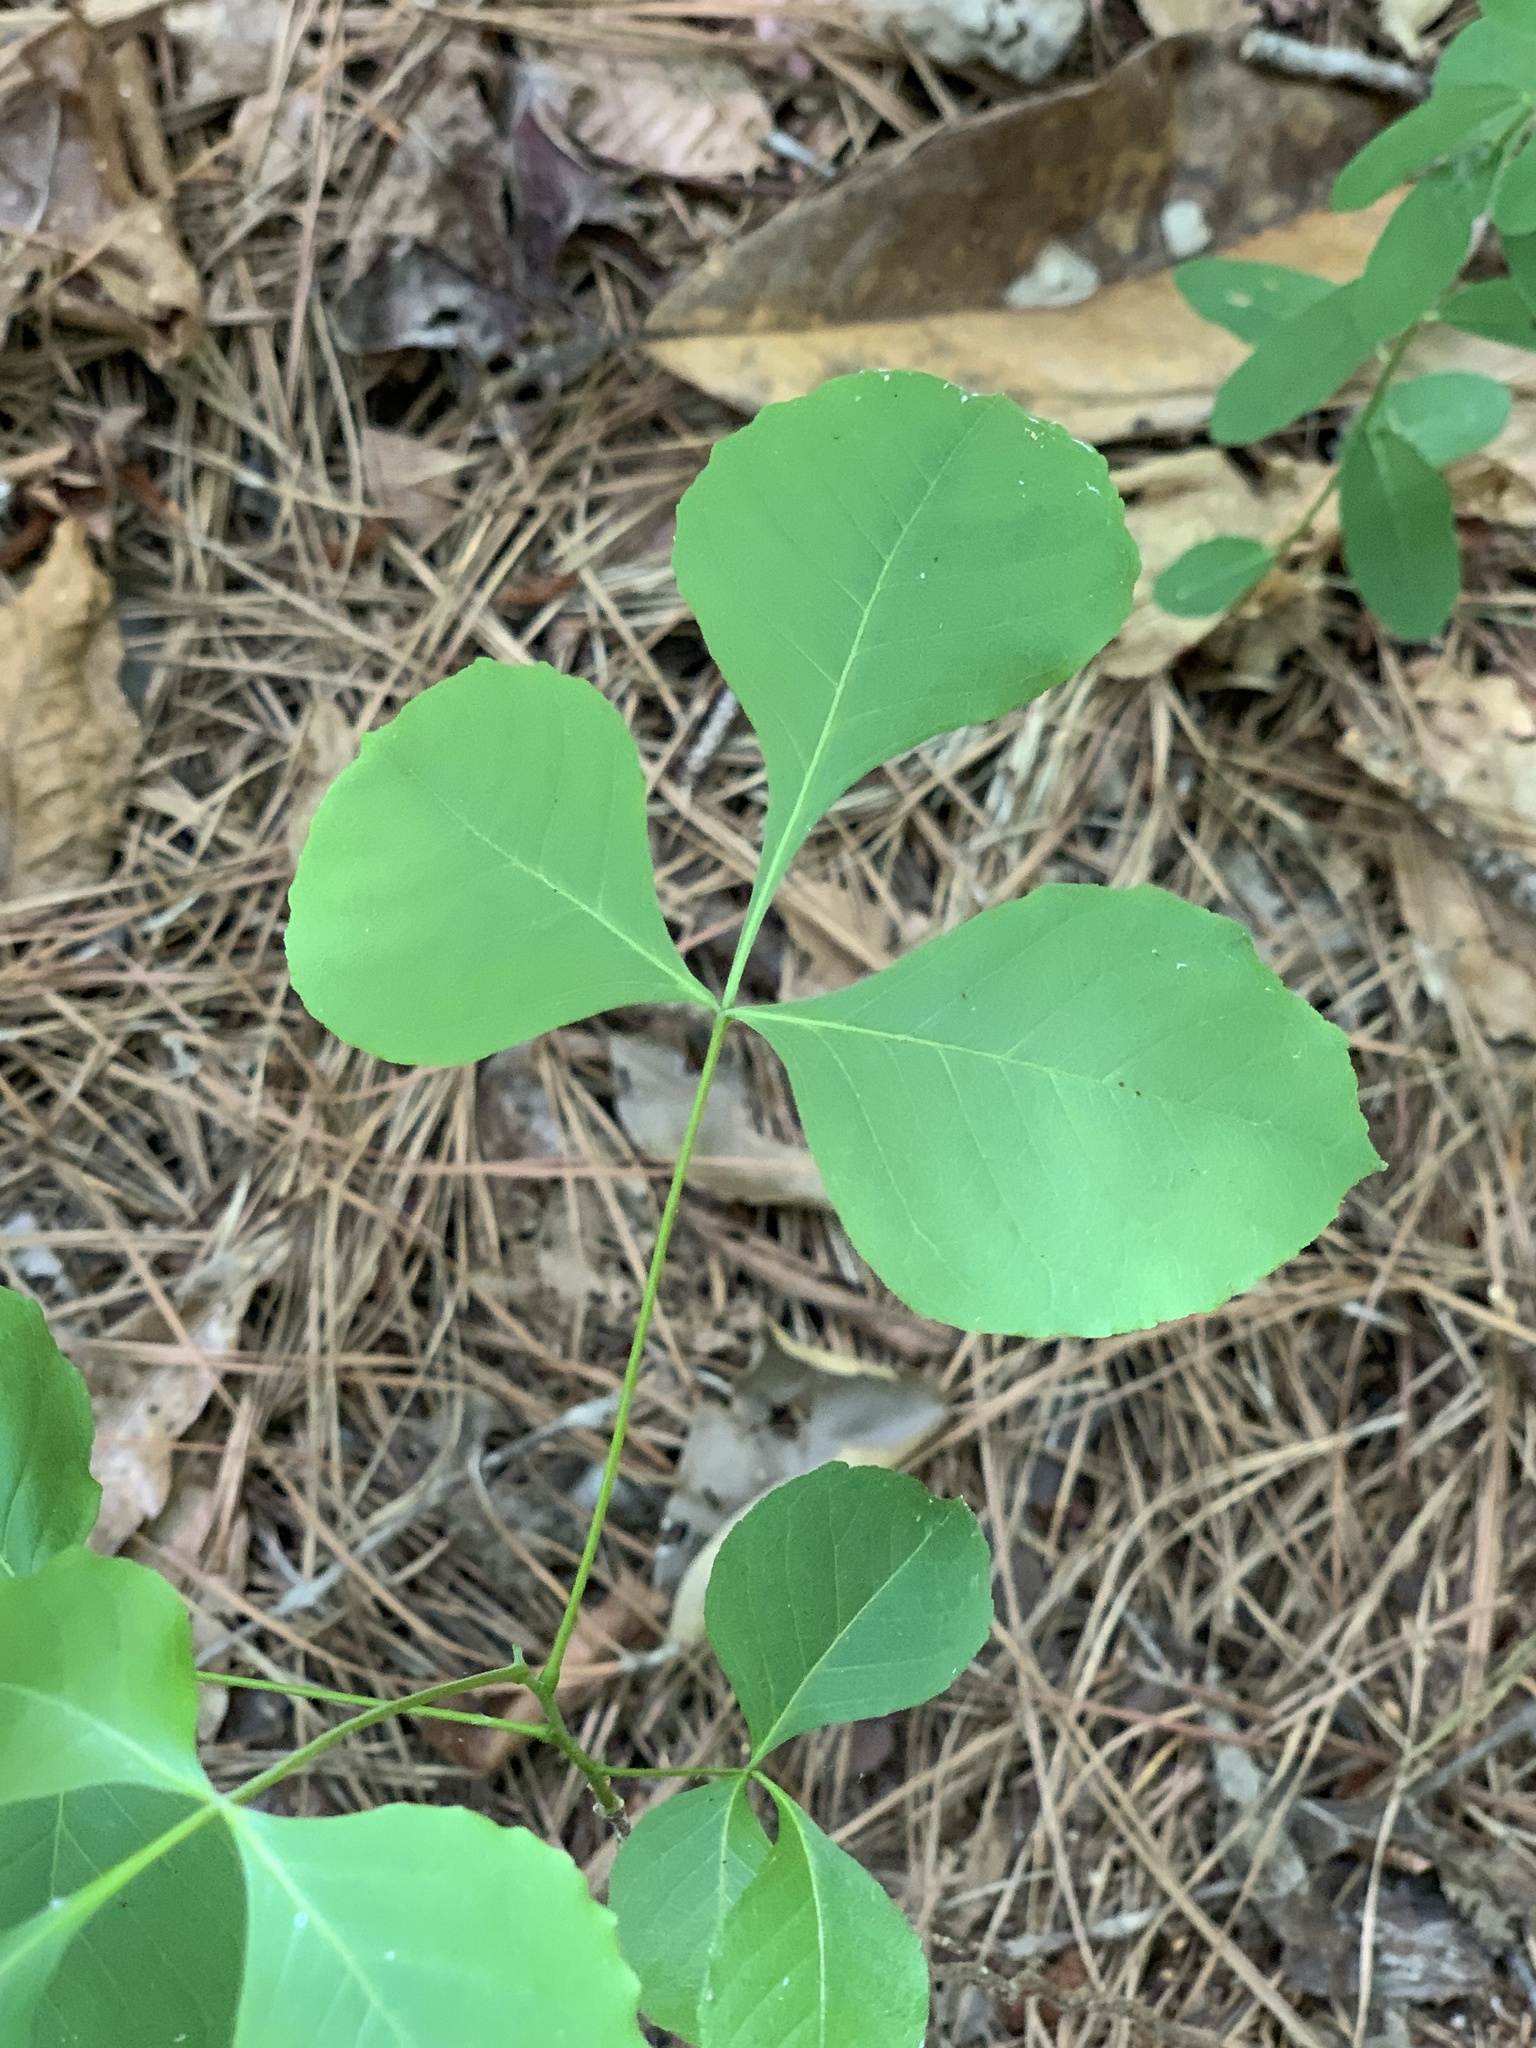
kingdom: Plantae
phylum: Tracheophyta
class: Magnoliopsida
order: Sapindales
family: Rutaceae
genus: Ptelea
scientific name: Ptelea trifoliata
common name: Common hop-tree
